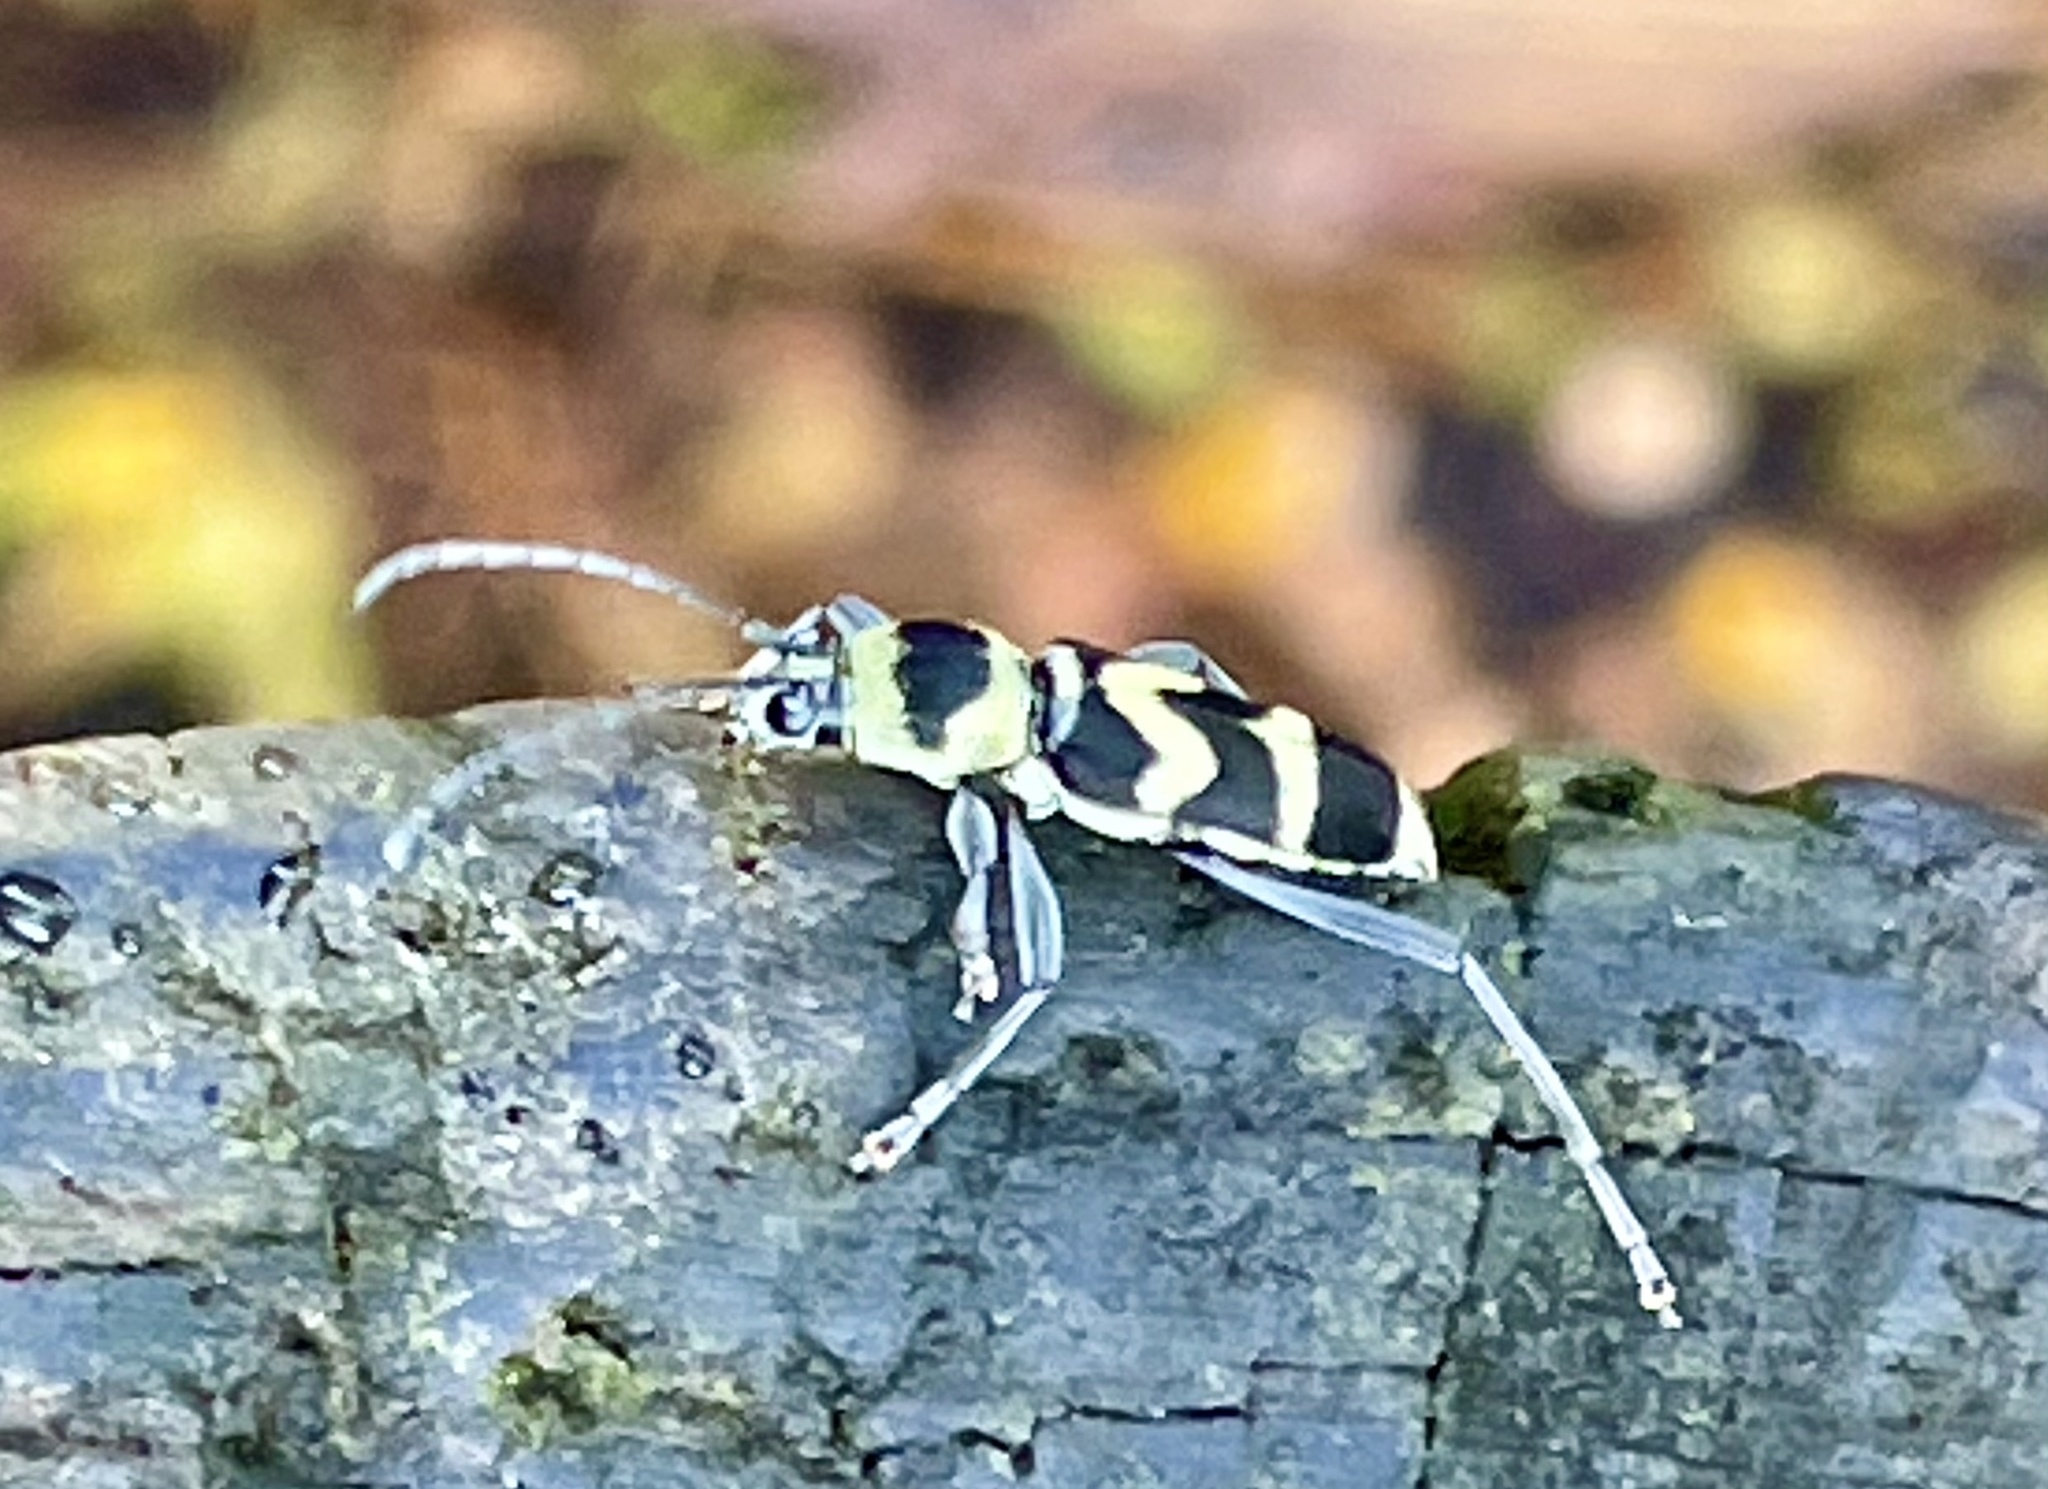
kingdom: Animalia
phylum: Arthropoda
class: Insecta
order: Coleoptera
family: Cerambycidae
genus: Clytus
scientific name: Clytus curtisi
